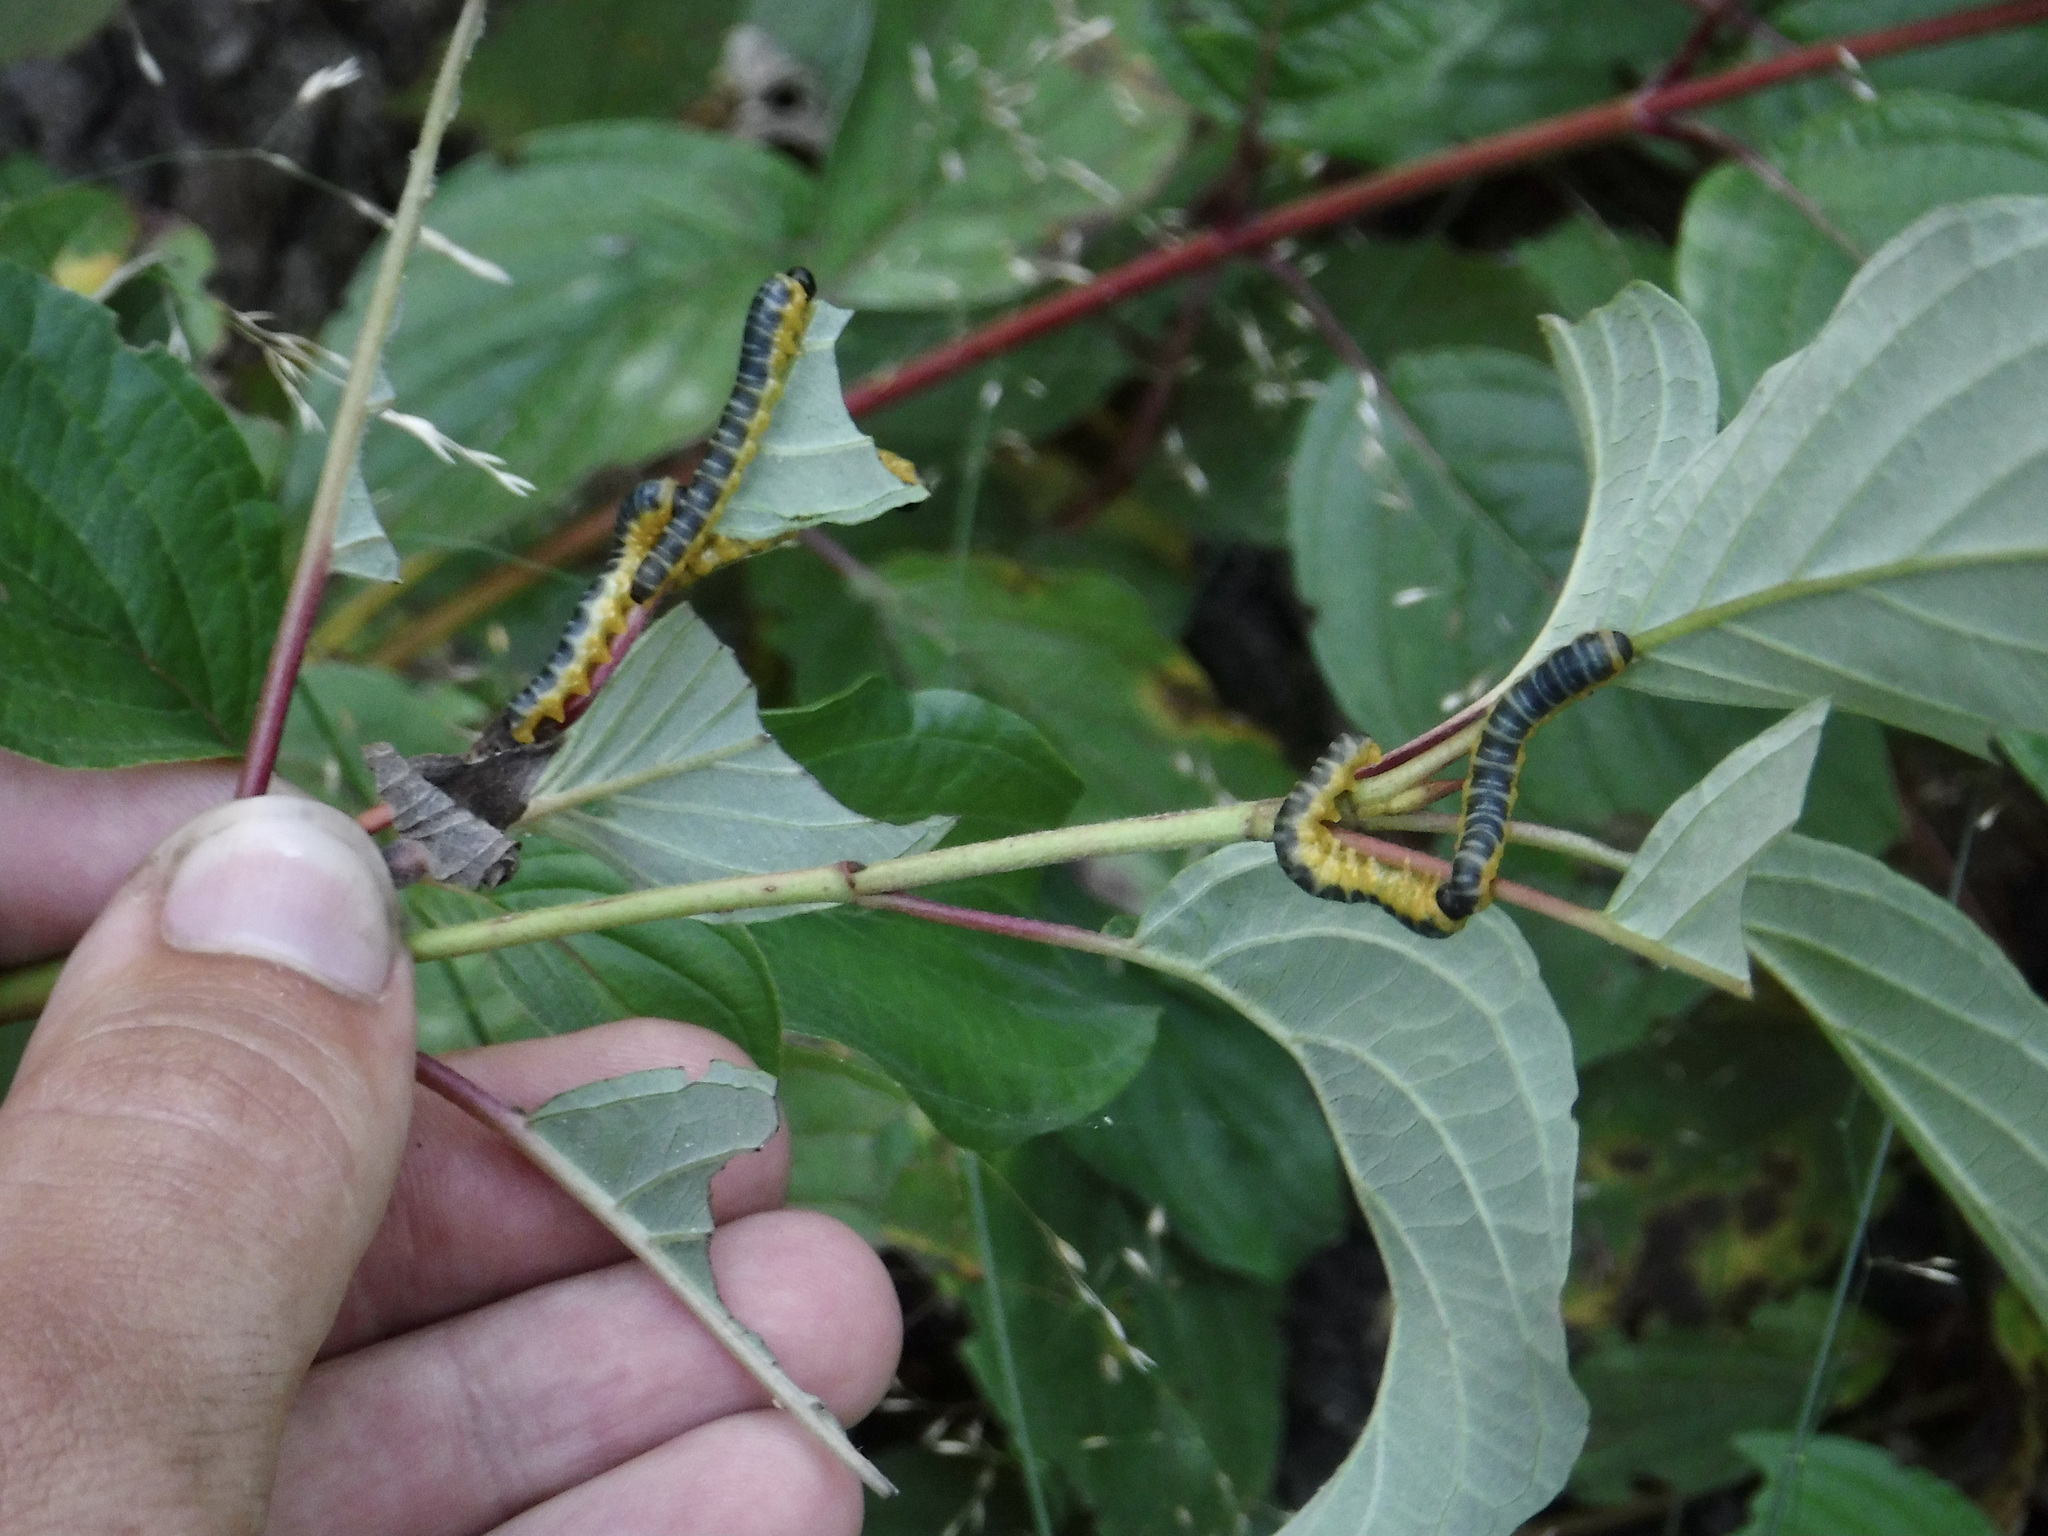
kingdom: Animalia
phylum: Arthropoda
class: Insecta
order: Hymenoptera
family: Tenthredinidae
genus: Macremphytus
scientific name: Macremphytus
